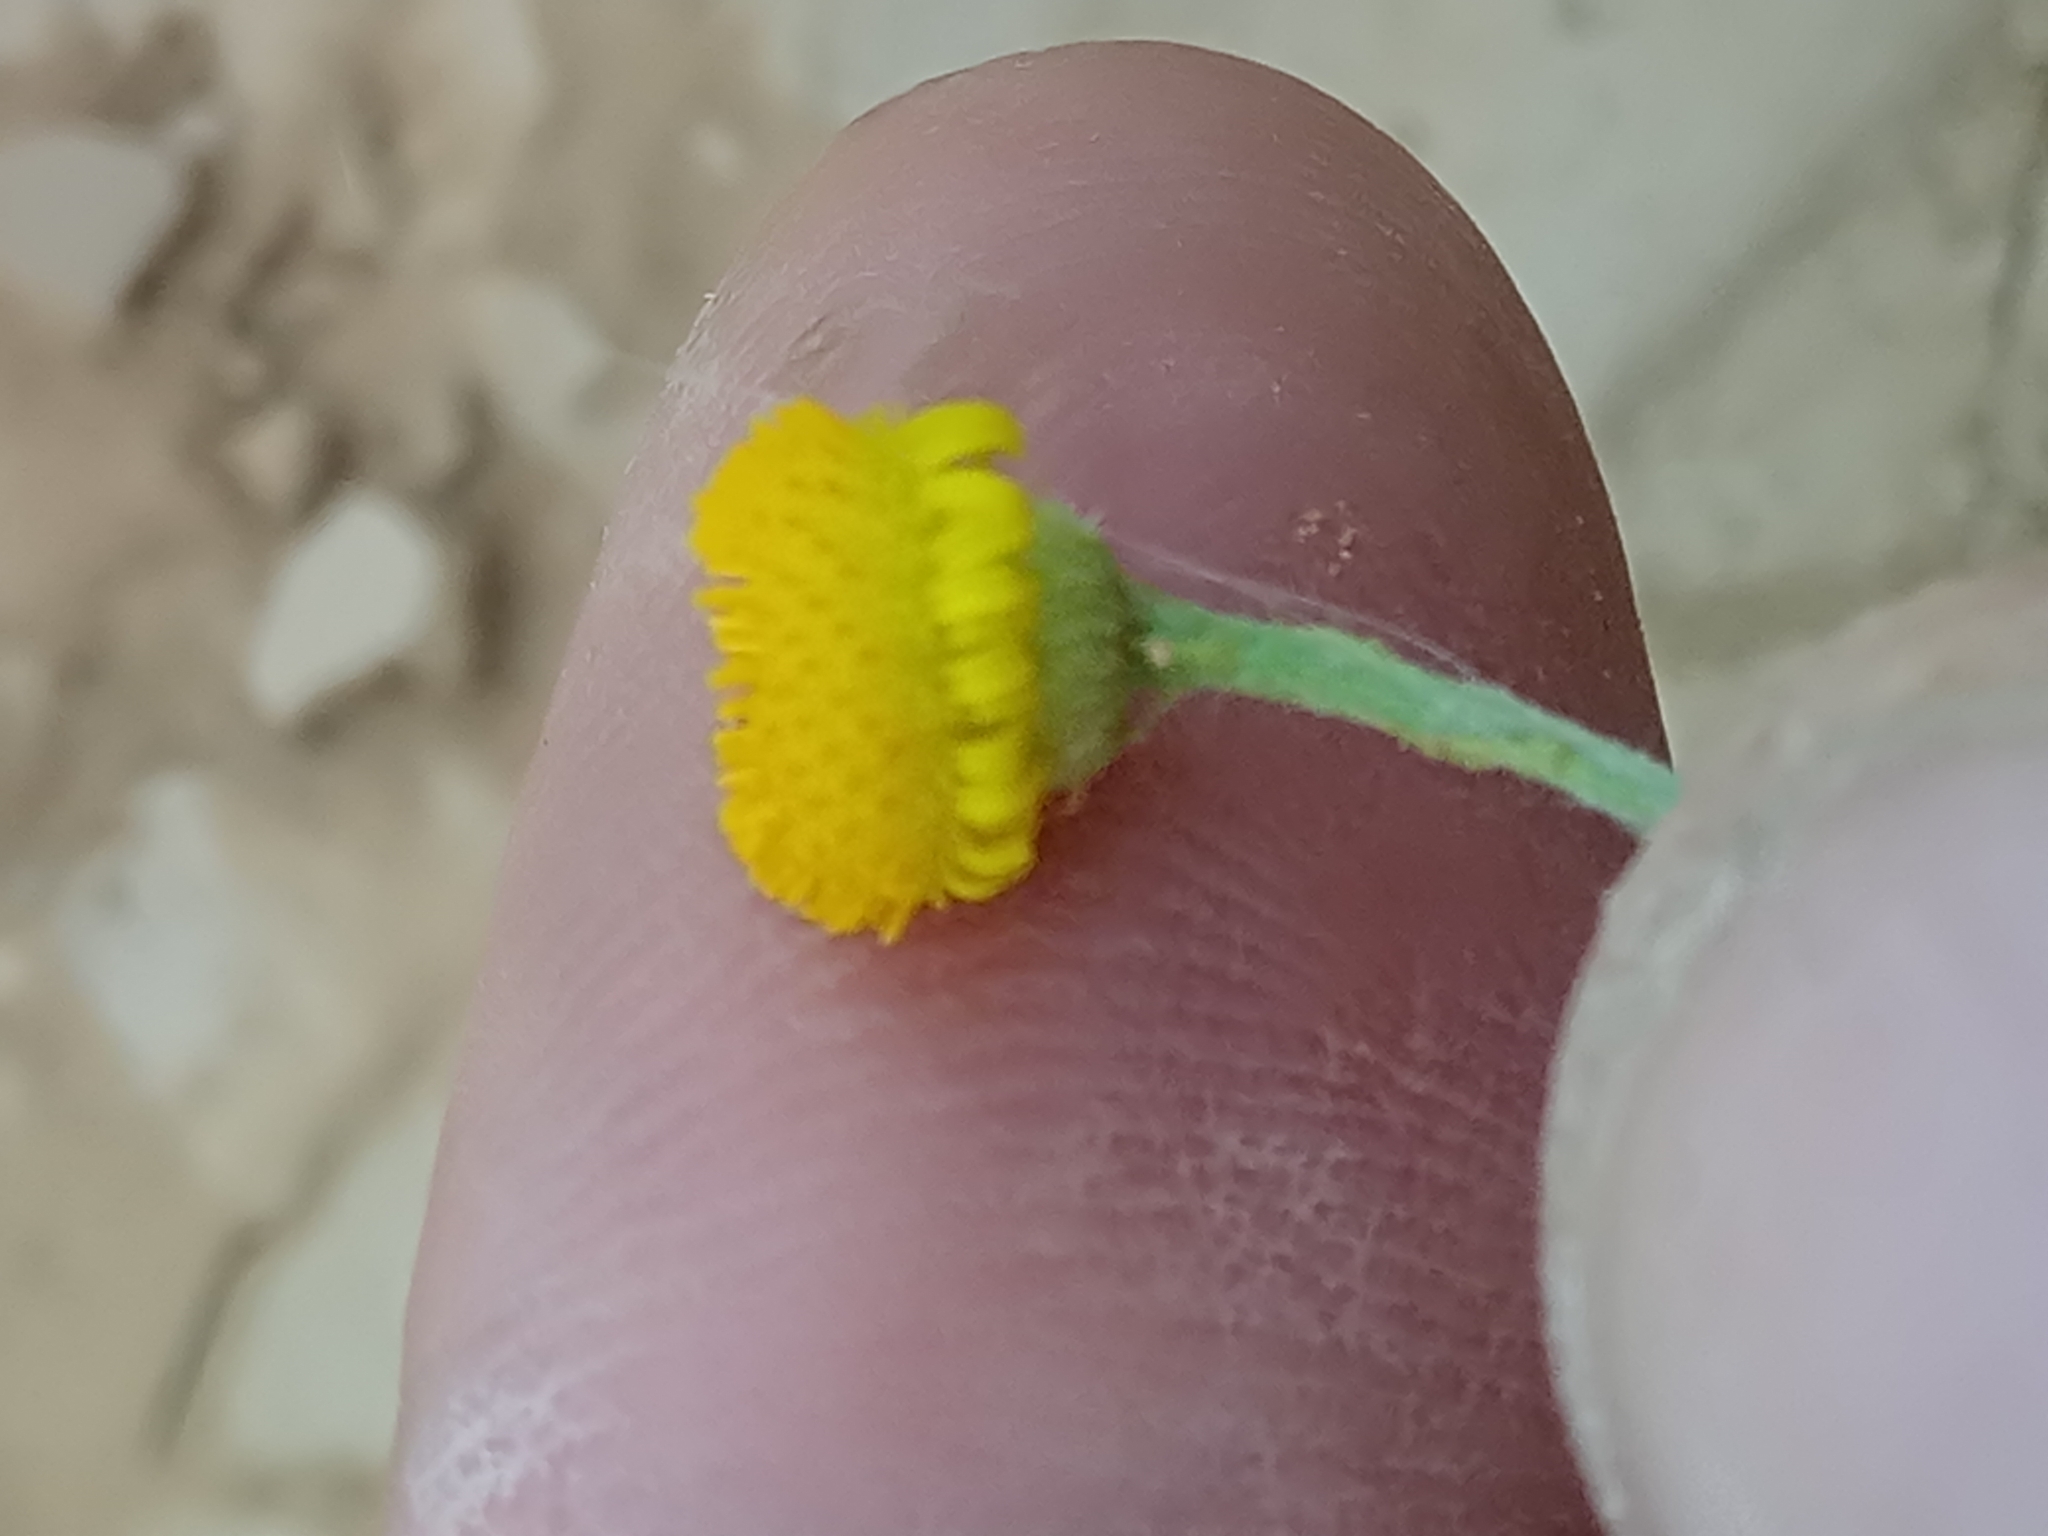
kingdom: Plantae
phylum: Tracheophyta
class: Magnoliopsida
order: Asterales
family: Asteraceae
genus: Pulicaria
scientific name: Pulicaria undulata
